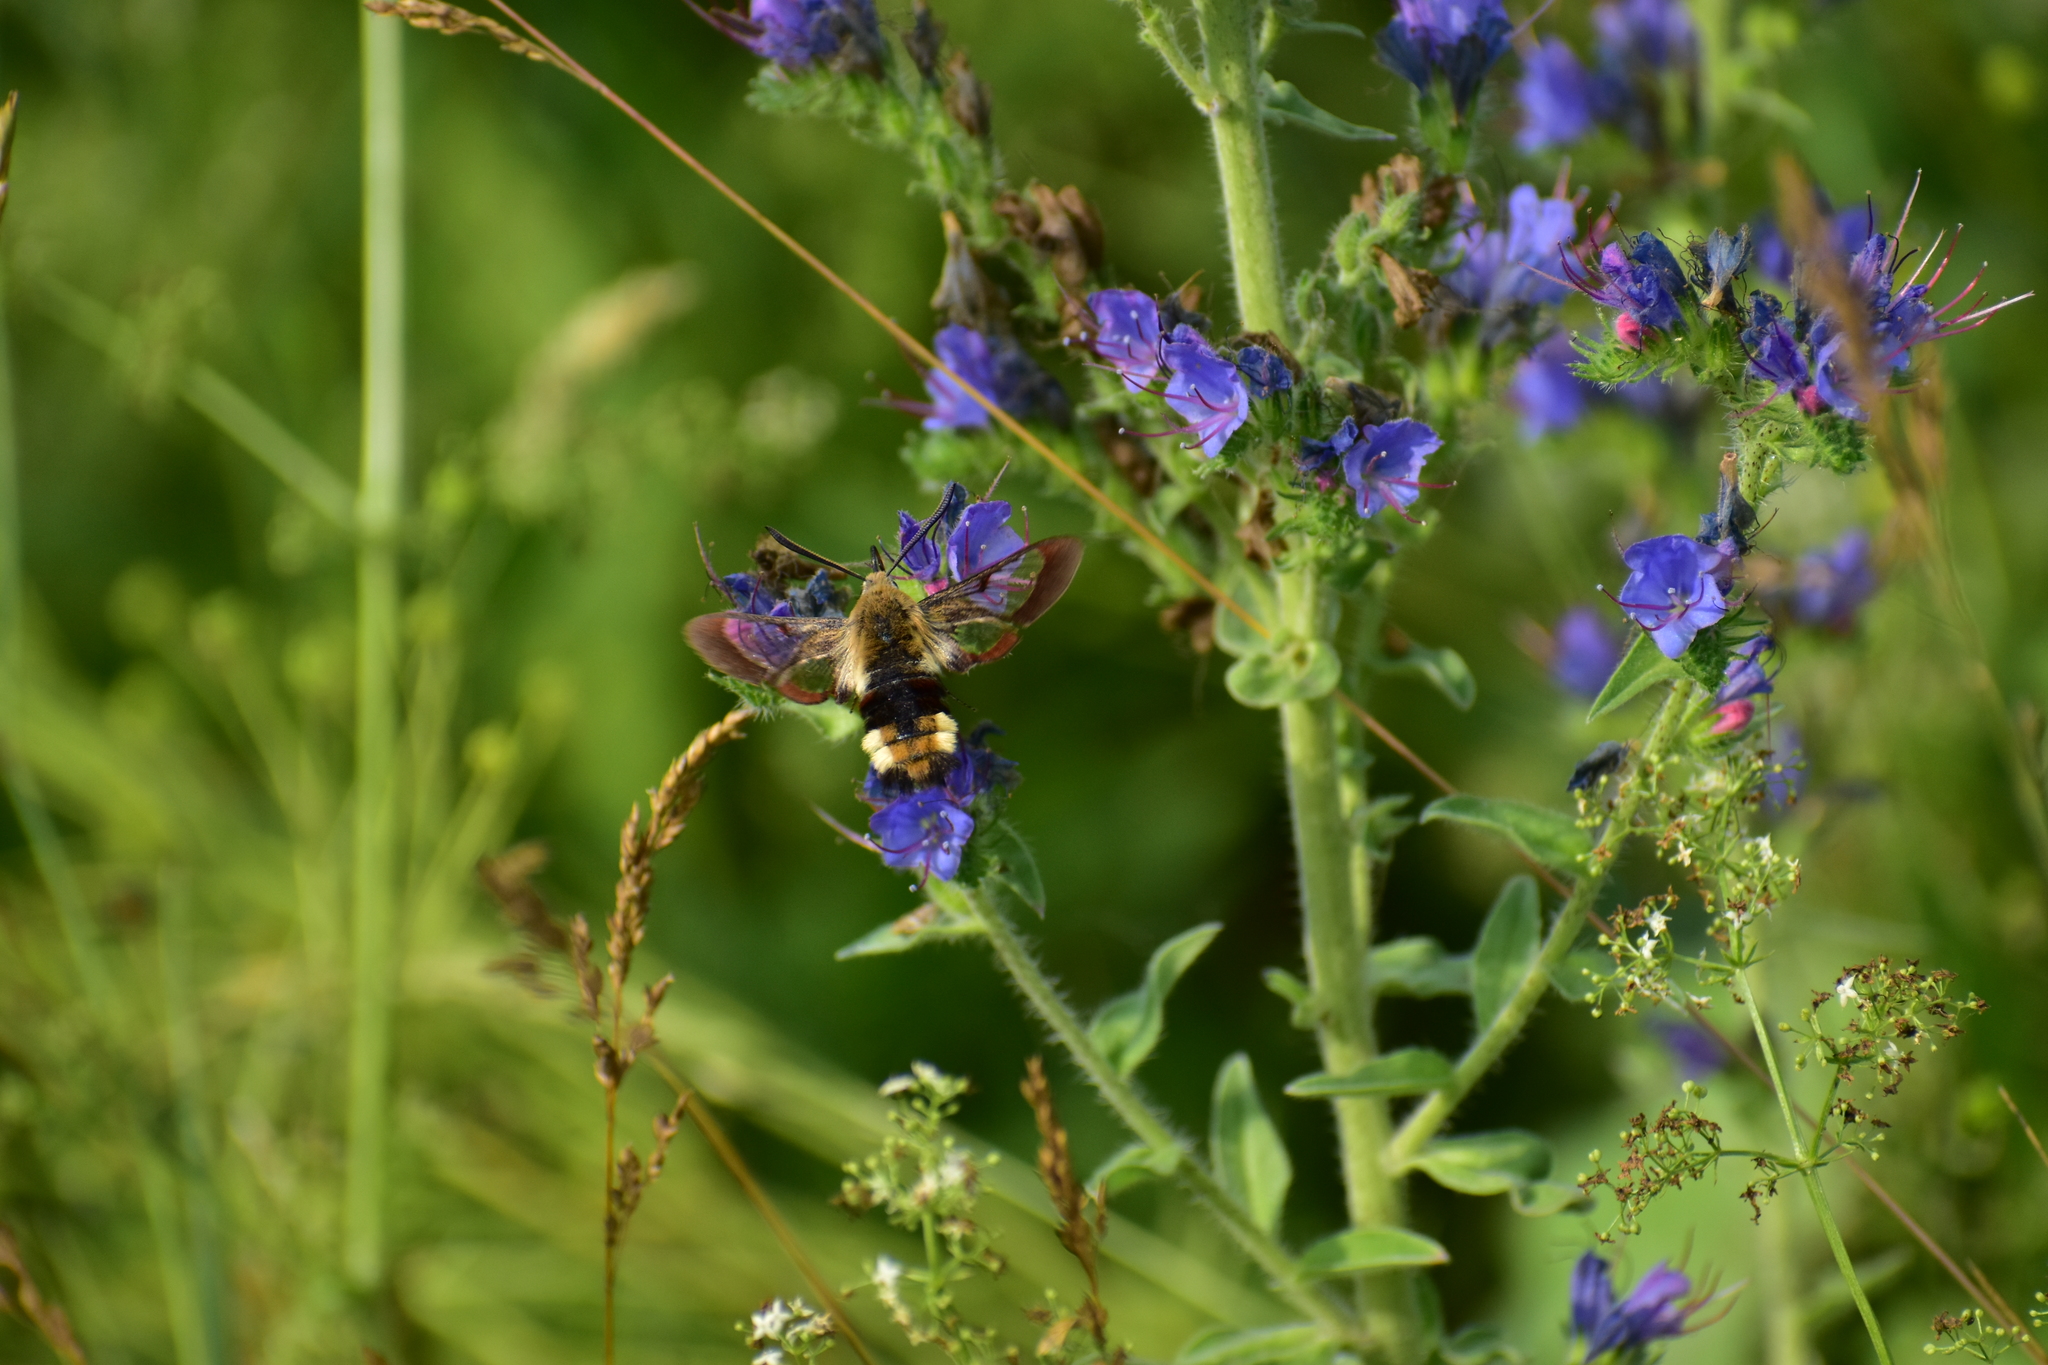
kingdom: Animalia
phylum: Arthropoda
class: Insecta
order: Lepidoptera
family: Sphingidae
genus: Hemaris
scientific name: Hemaris fuciformis
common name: Broad-bordered bee hawk-moth
